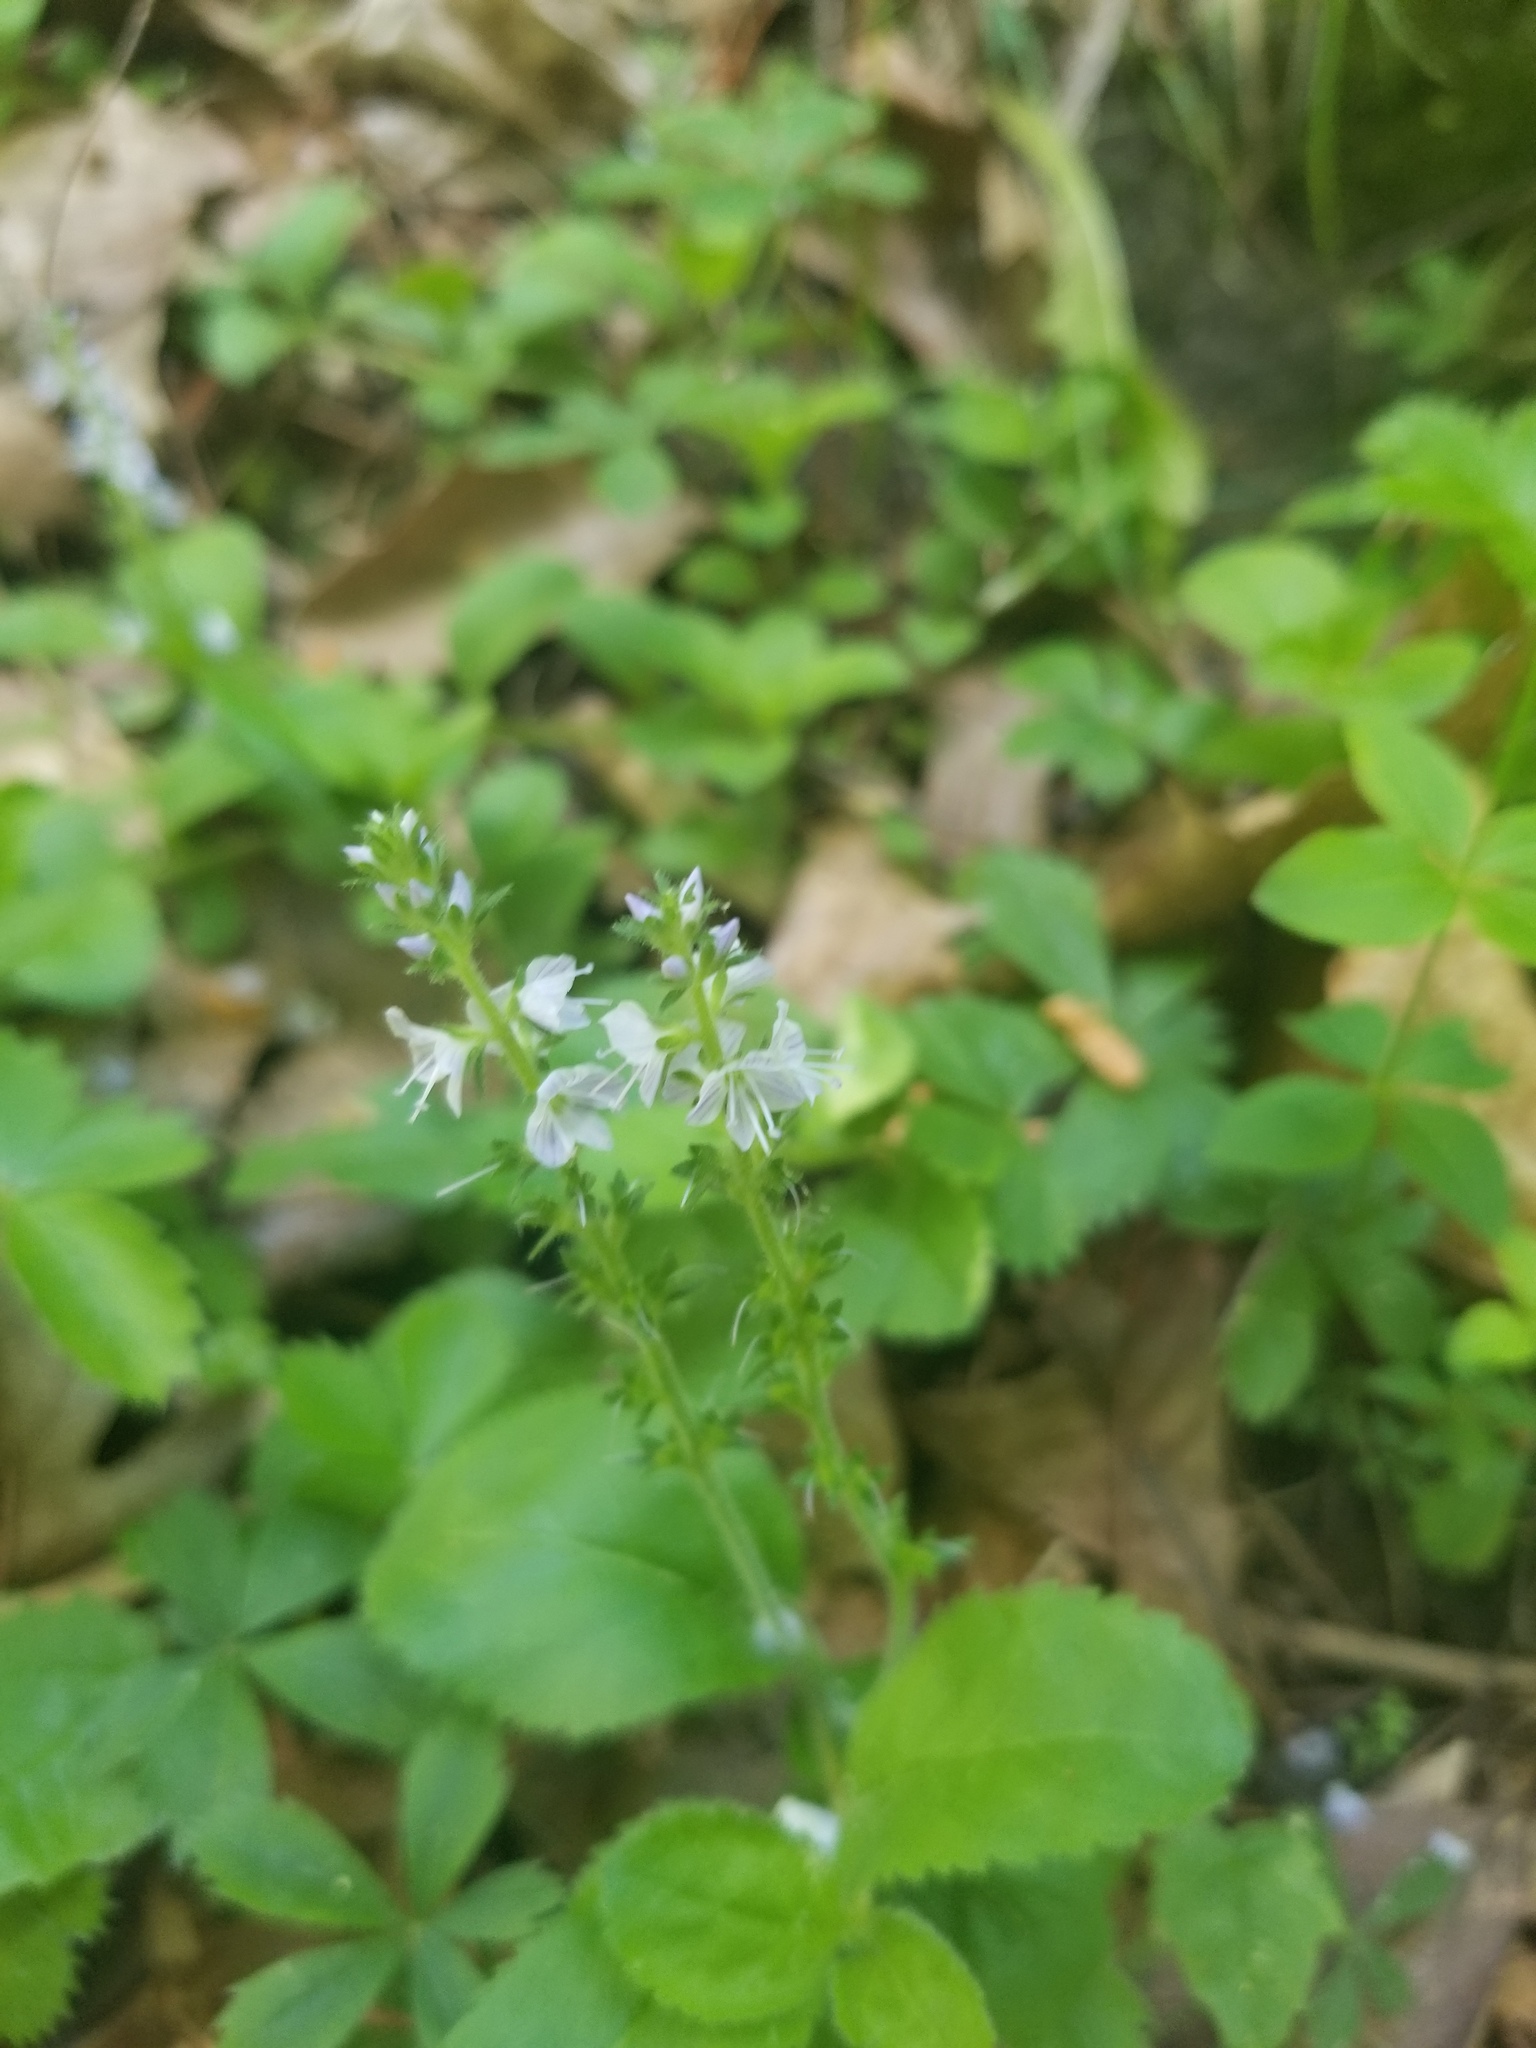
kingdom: Plantae
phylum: Tracheophyta
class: Magnoliopsida
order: Lamiales
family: Plantaginaceae
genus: Veronica
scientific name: Veronica officinalis
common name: Common speedwell
